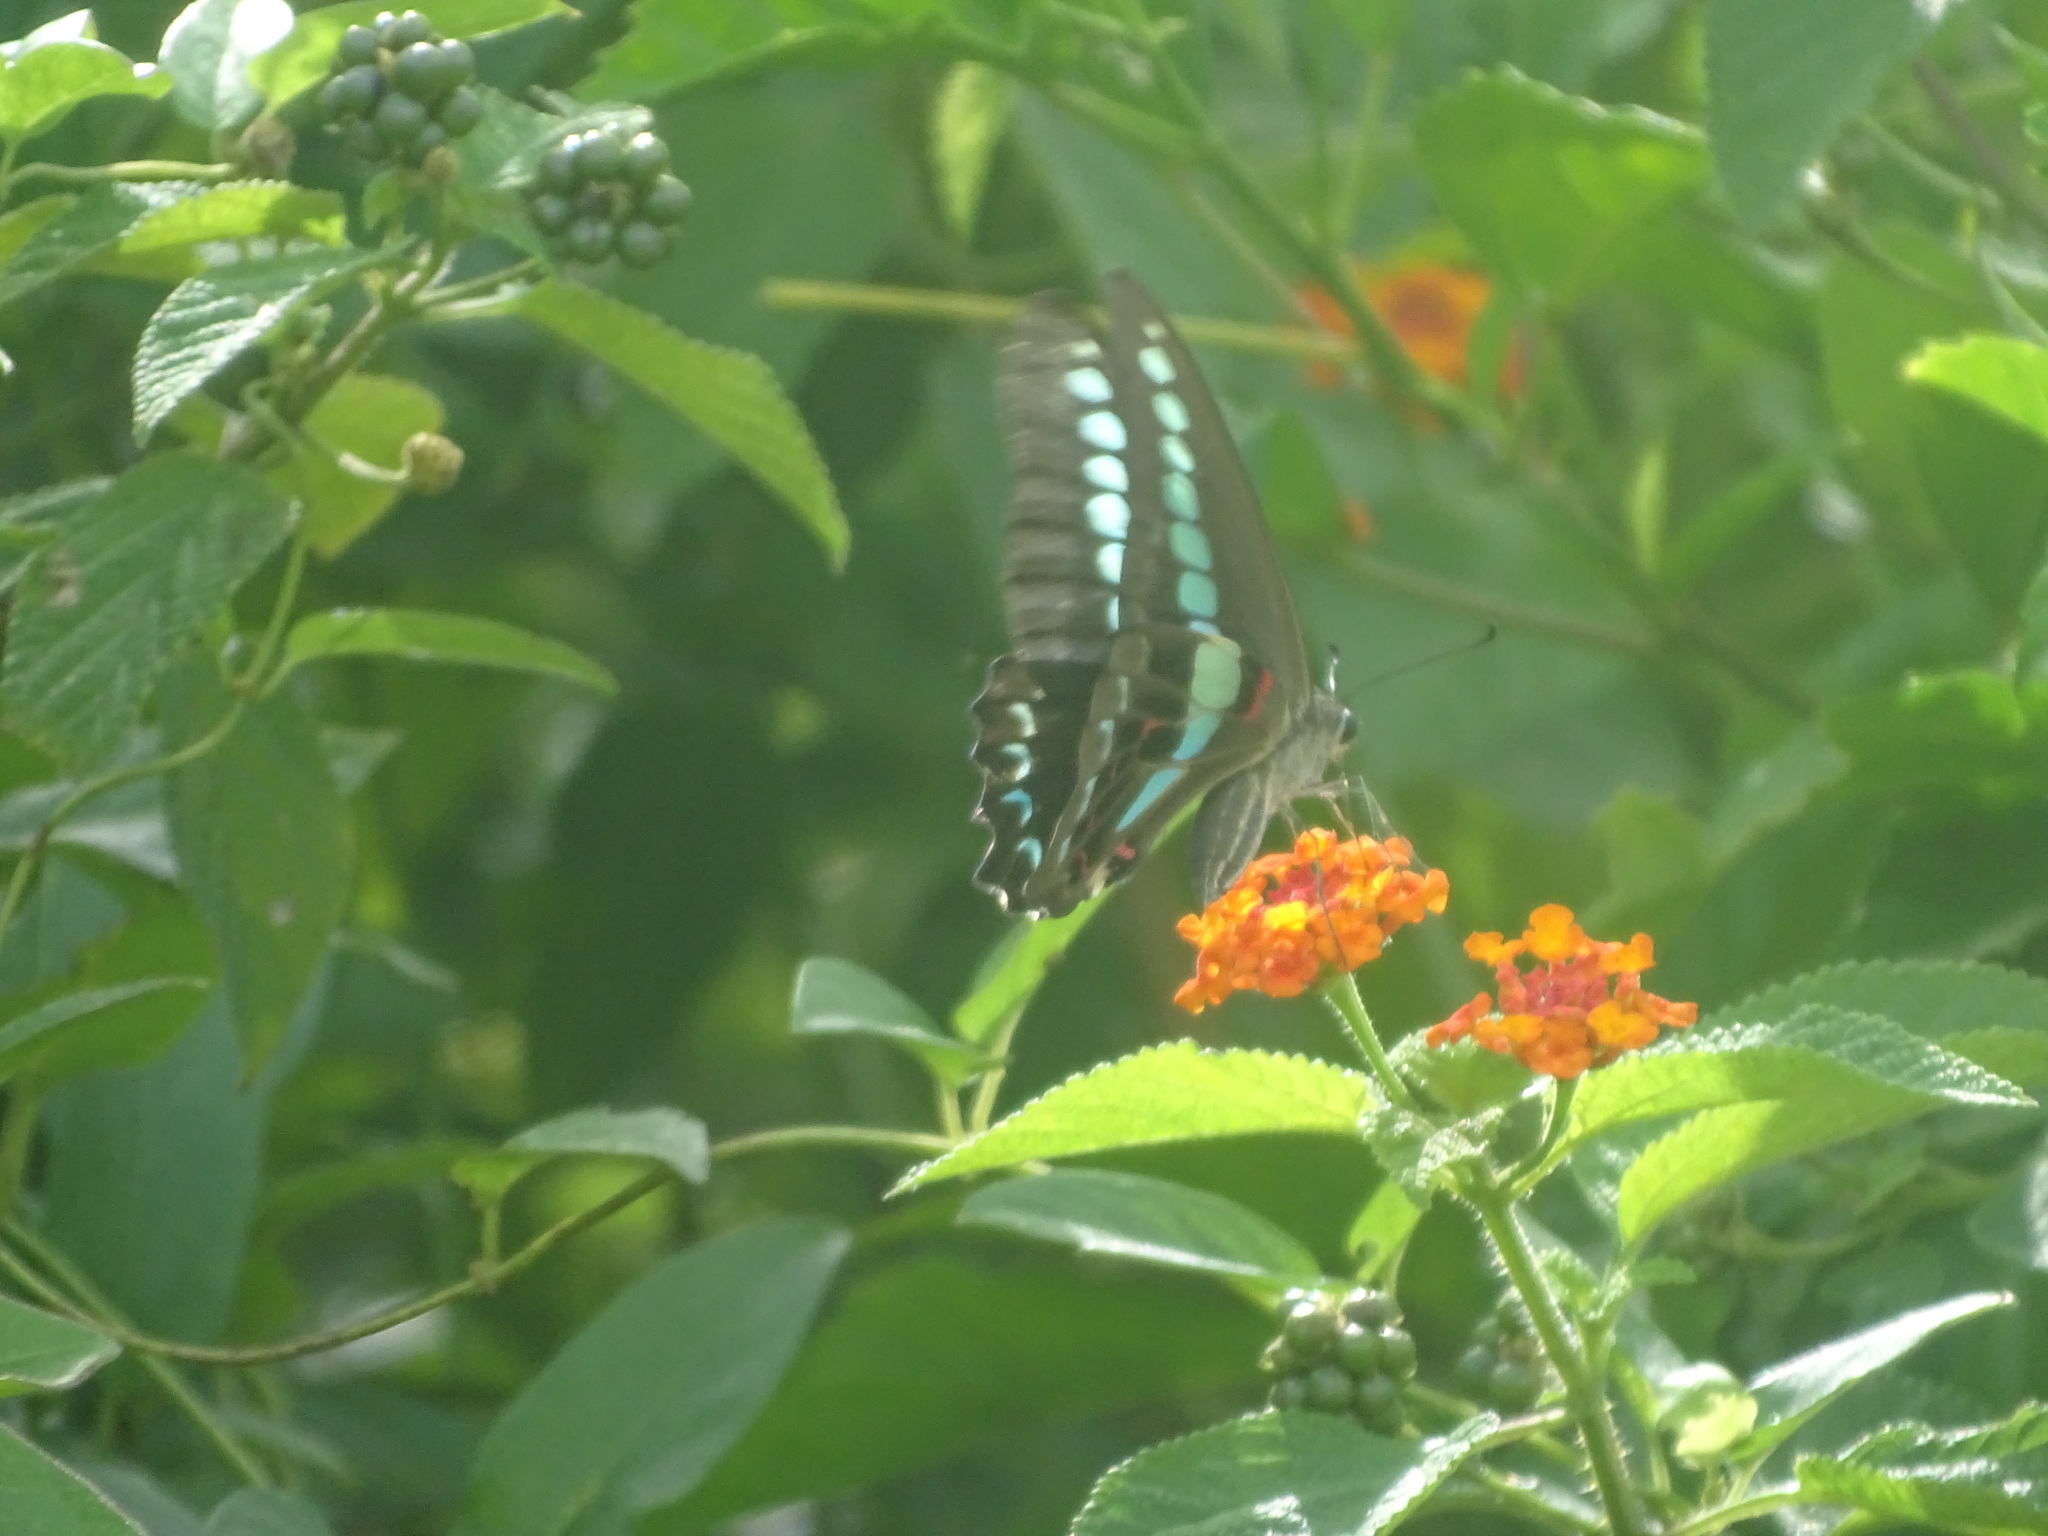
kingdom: Fungi
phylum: Ascomycota
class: Sordariomycetes
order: Microascales
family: Microascaceae
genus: Graphium
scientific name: Graphium sarpedon
